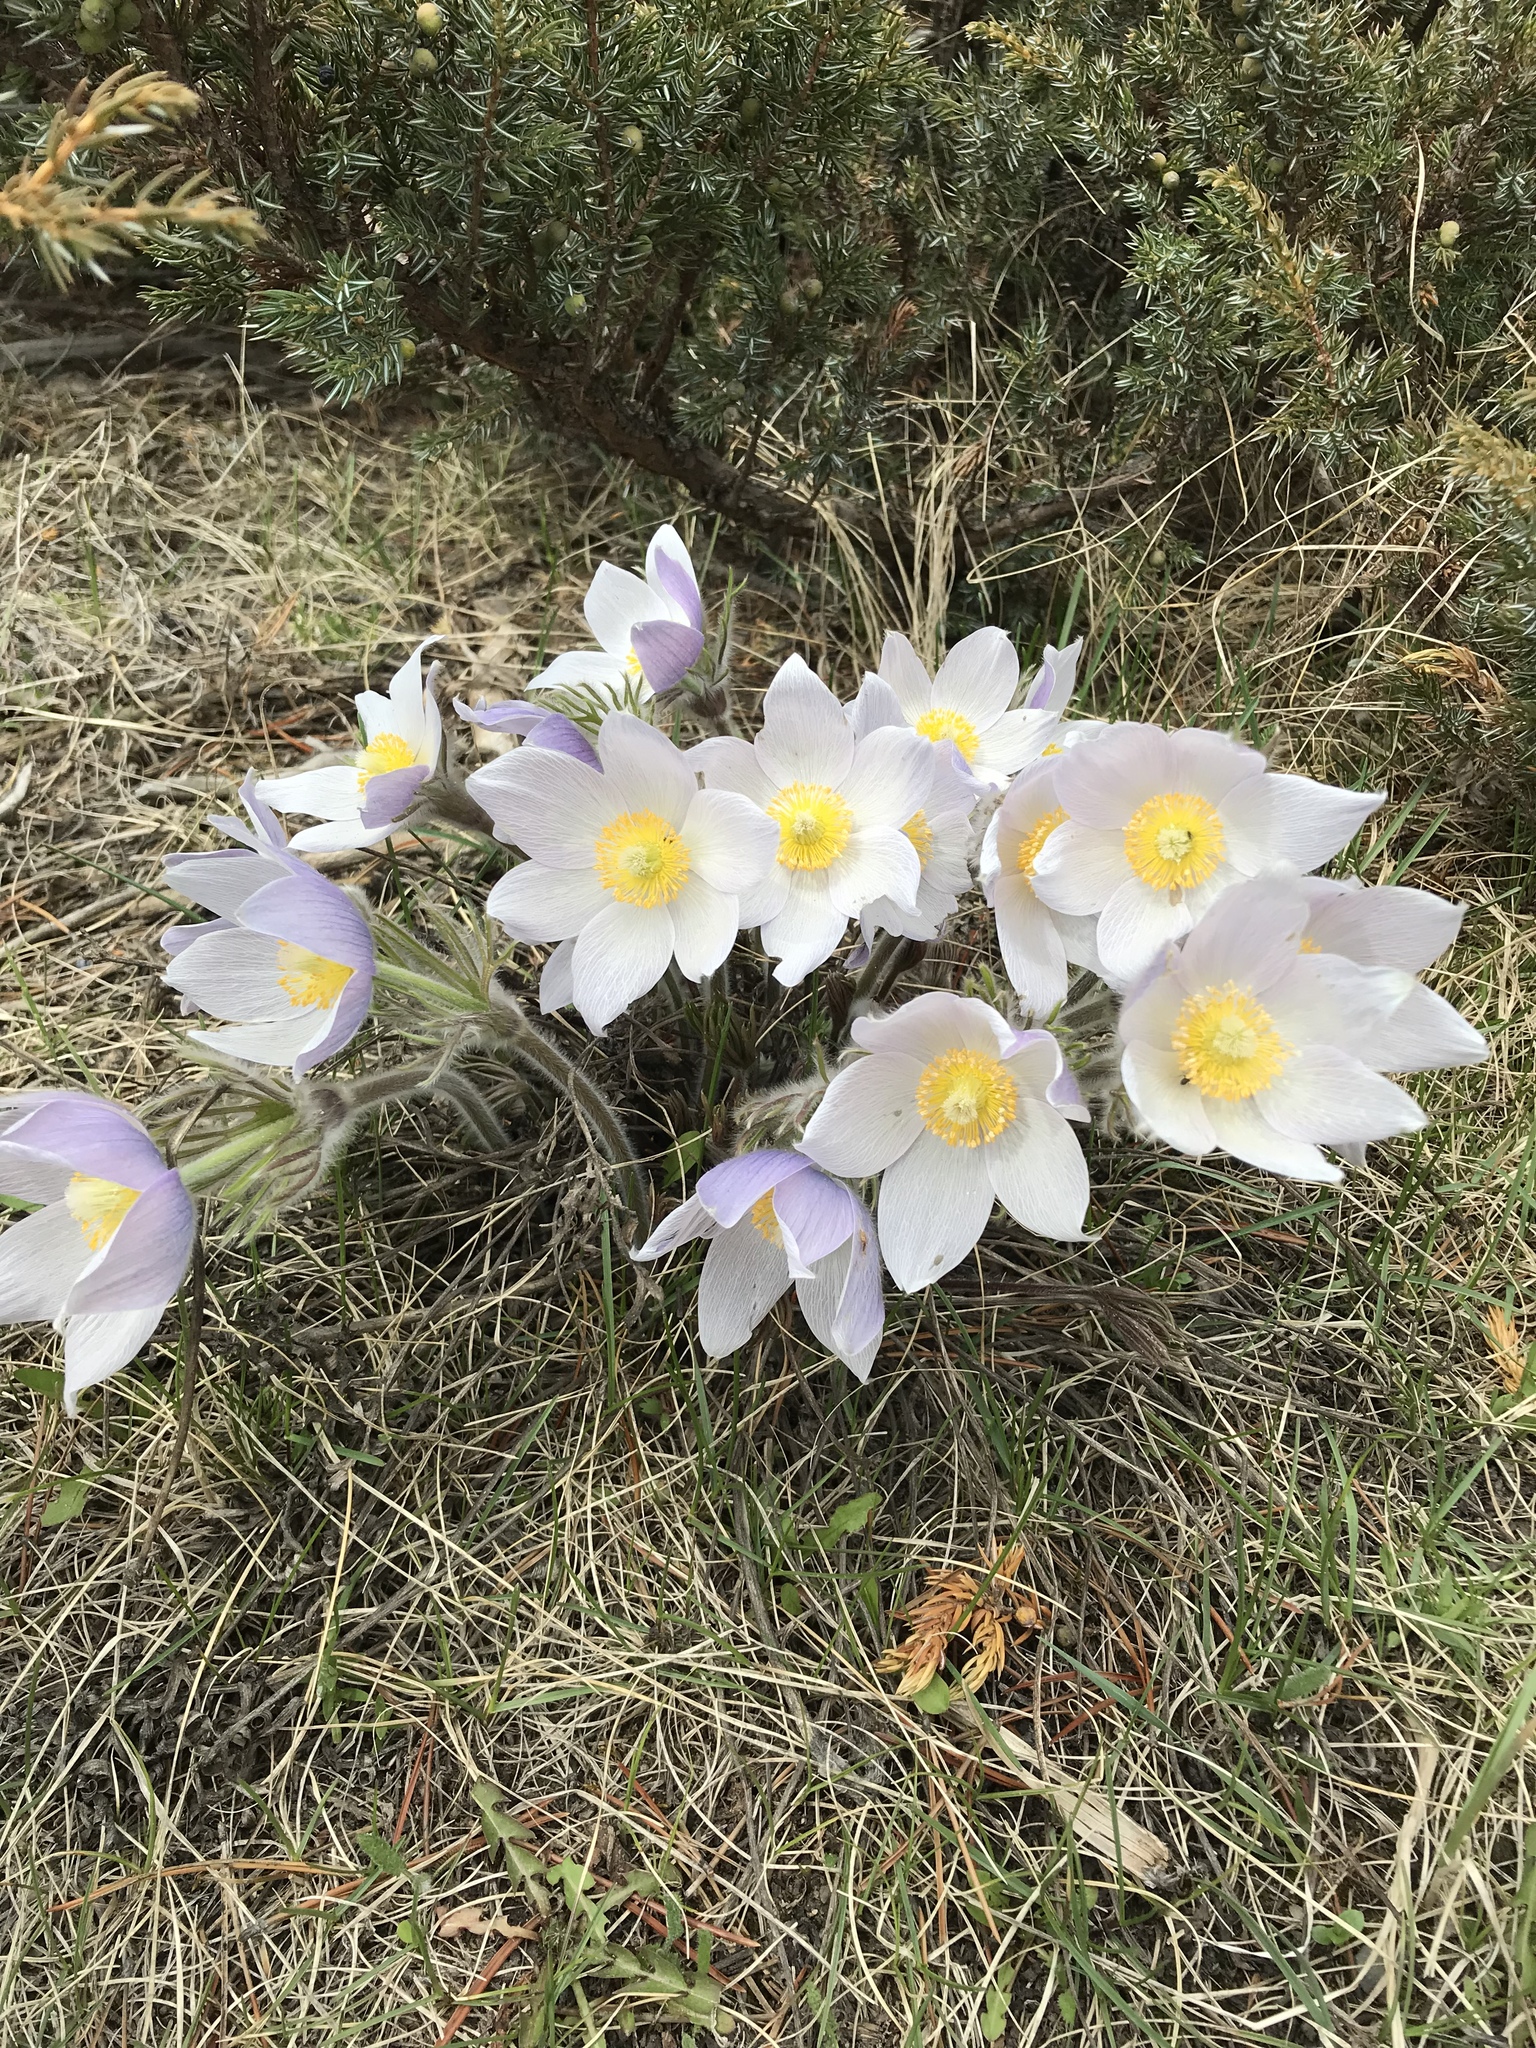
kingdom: Plantae
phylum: Tracheophyta
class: Magnoliopsida
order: Ranunculales
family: Ranunculaceae
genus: Pulsatilla
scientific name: Pulsatilla nuttalliana
